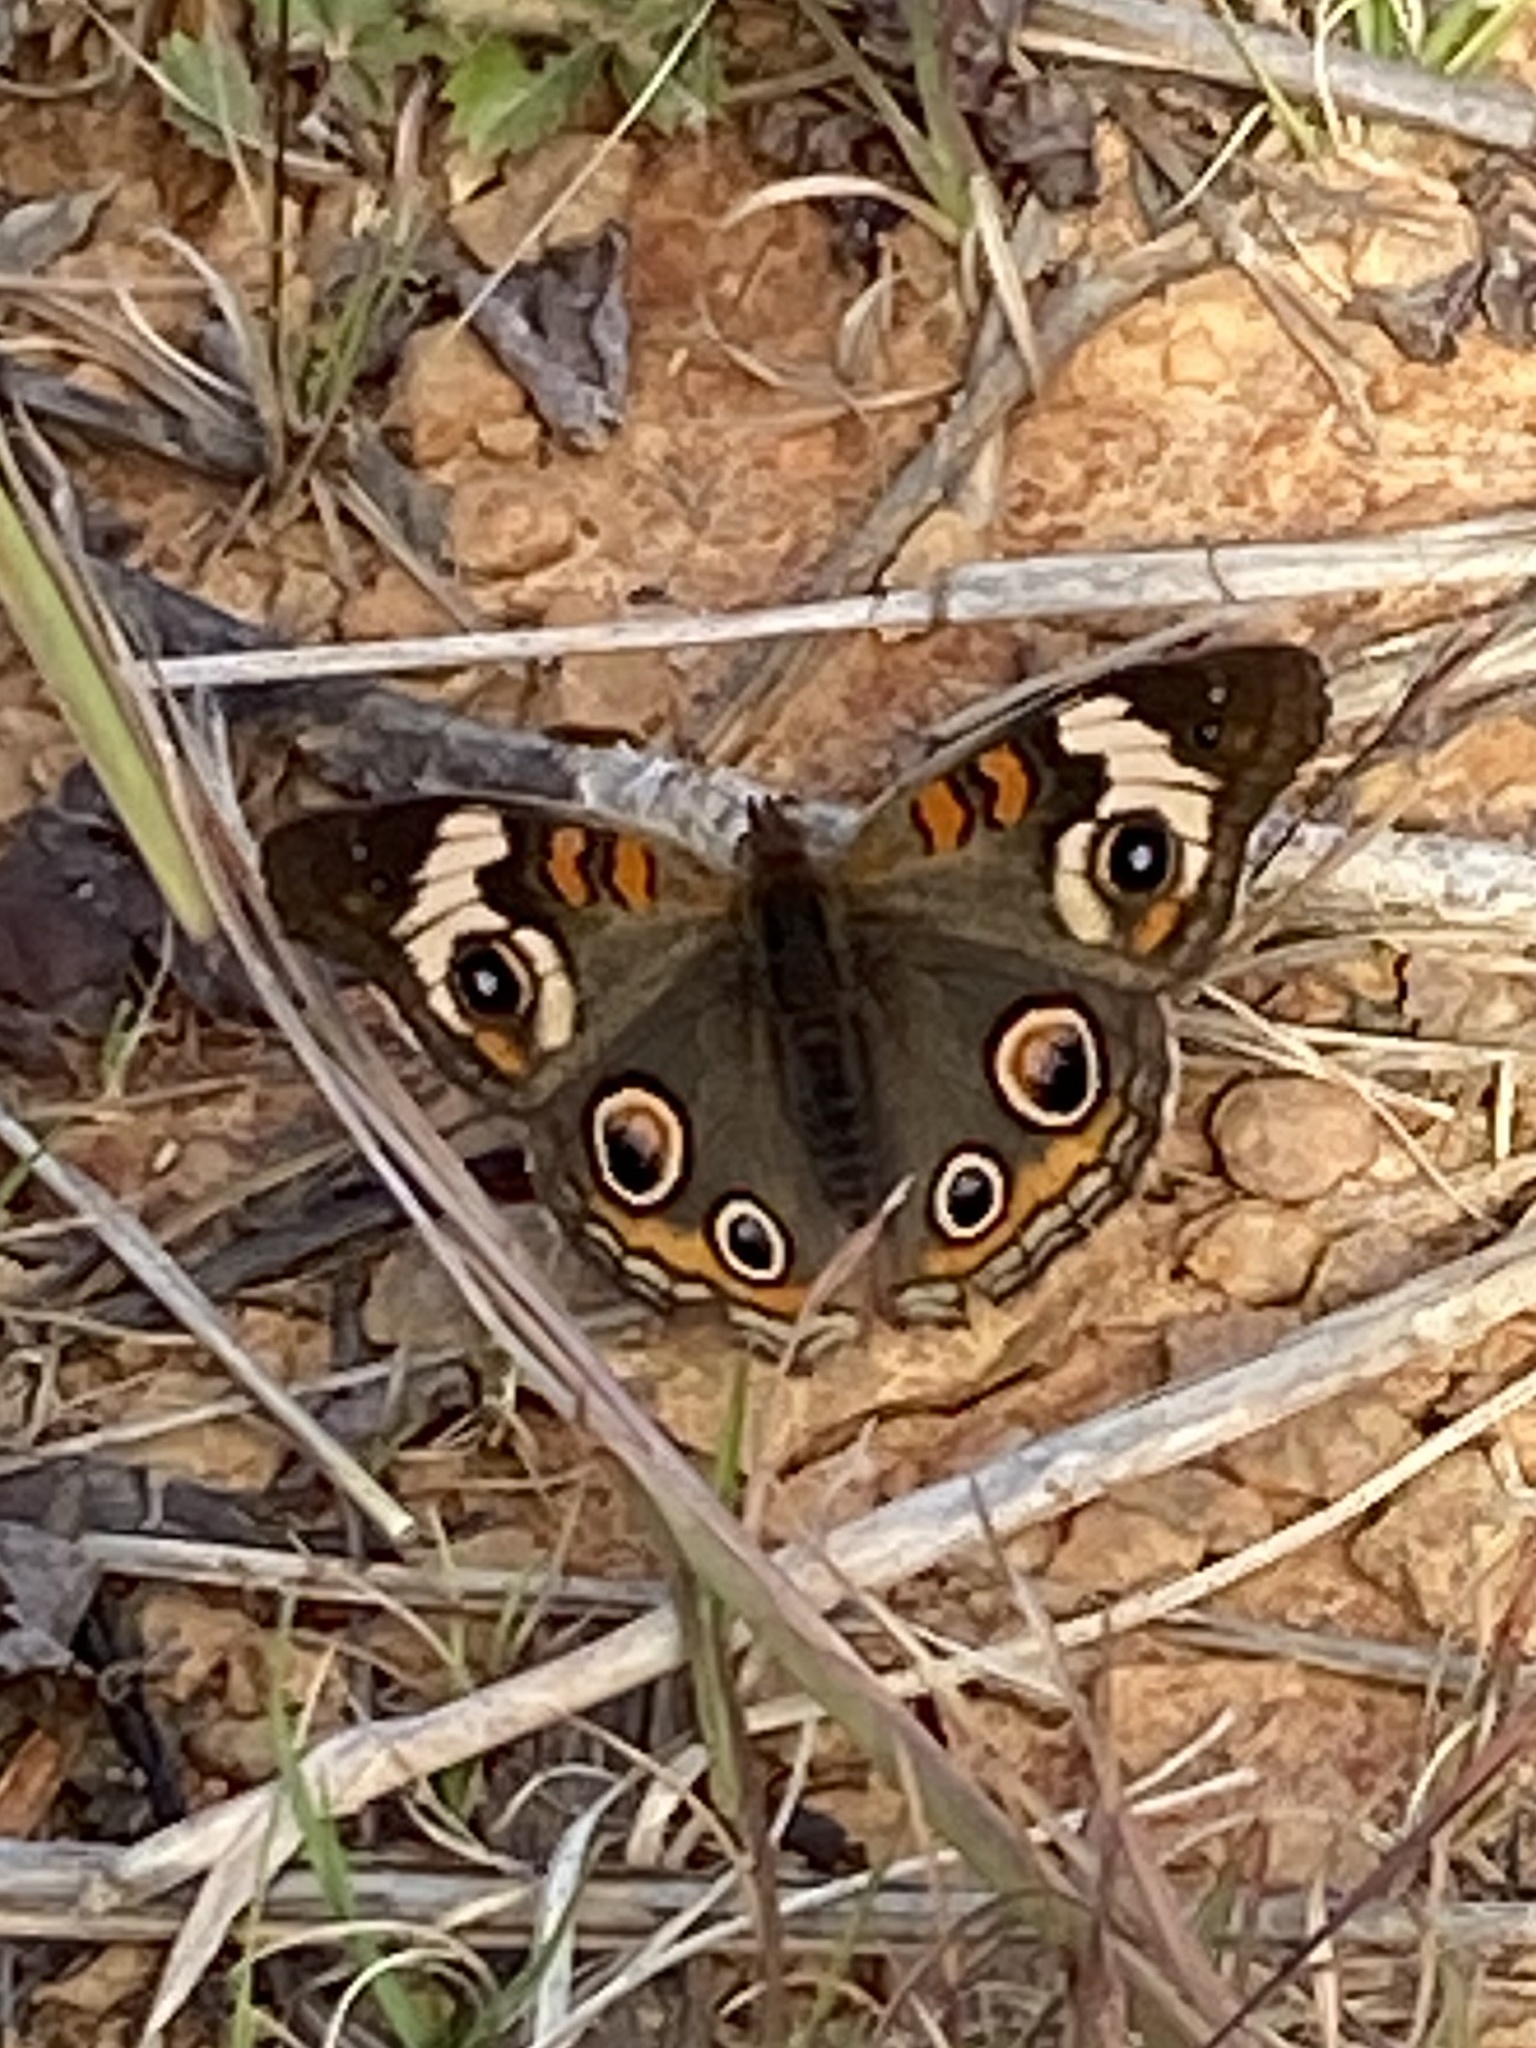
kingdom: Animalia
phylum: Arthropoda
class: Insecta
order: Lepidoptera
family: Nymphalidae
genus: Junonia
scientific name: Junonia coenia
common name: Common buckeye
